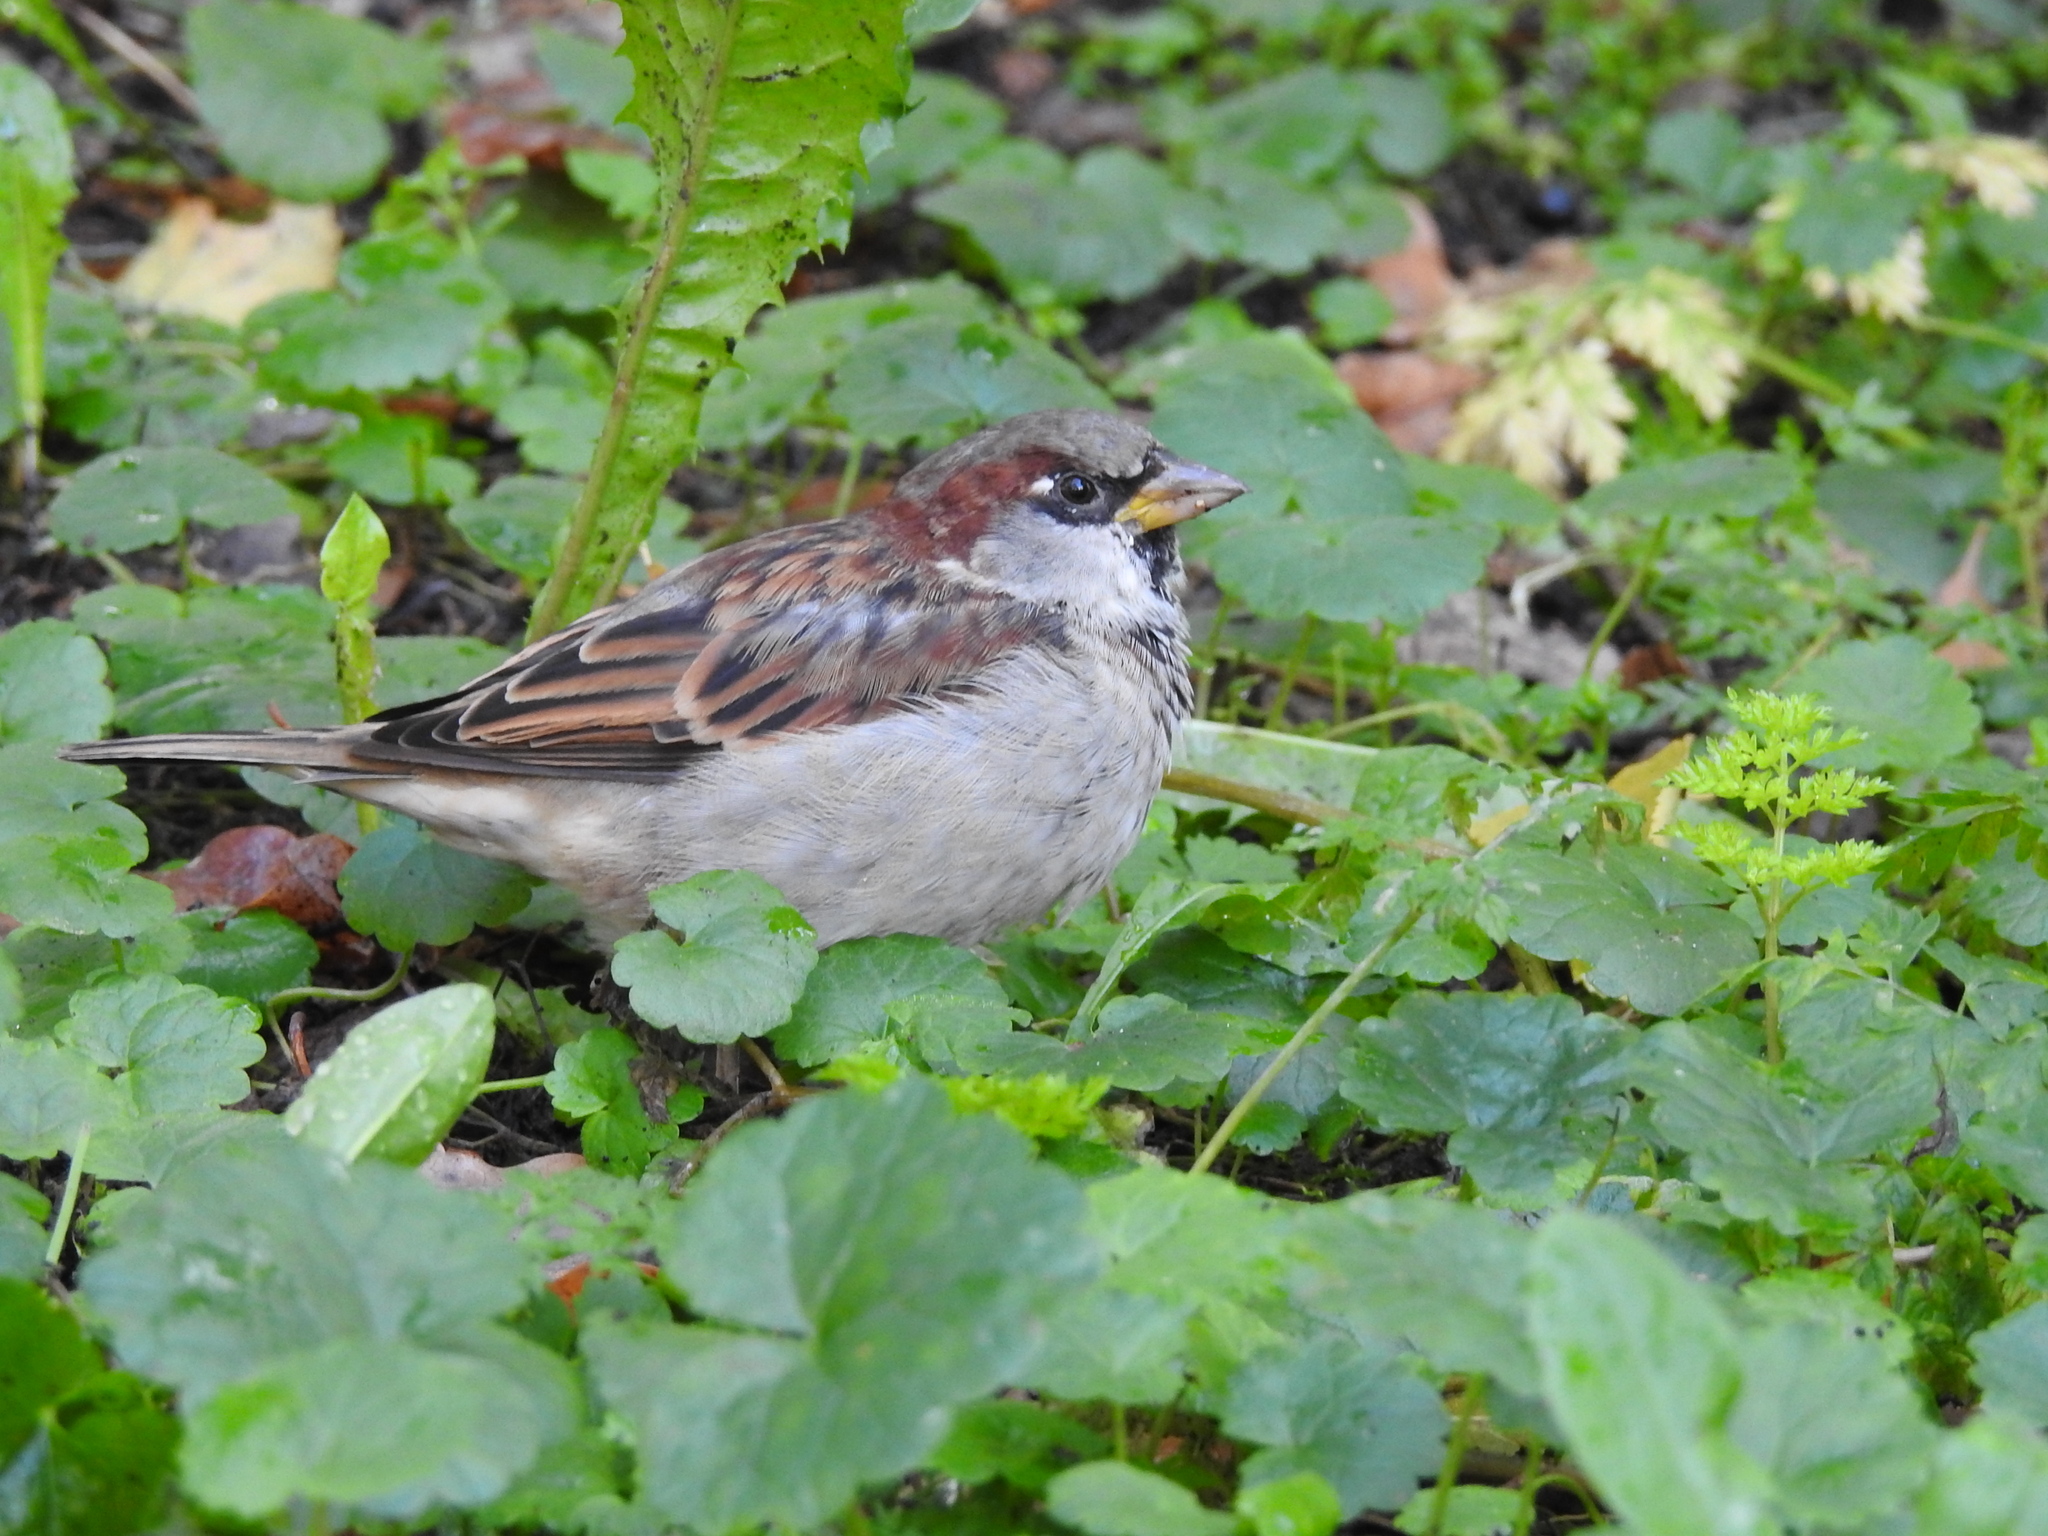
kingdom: Animalia
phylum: Chordata
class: Aves
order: Passeriformes
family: Passeridae
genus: Passer
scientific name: Passer domesticus
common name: House sparrow
